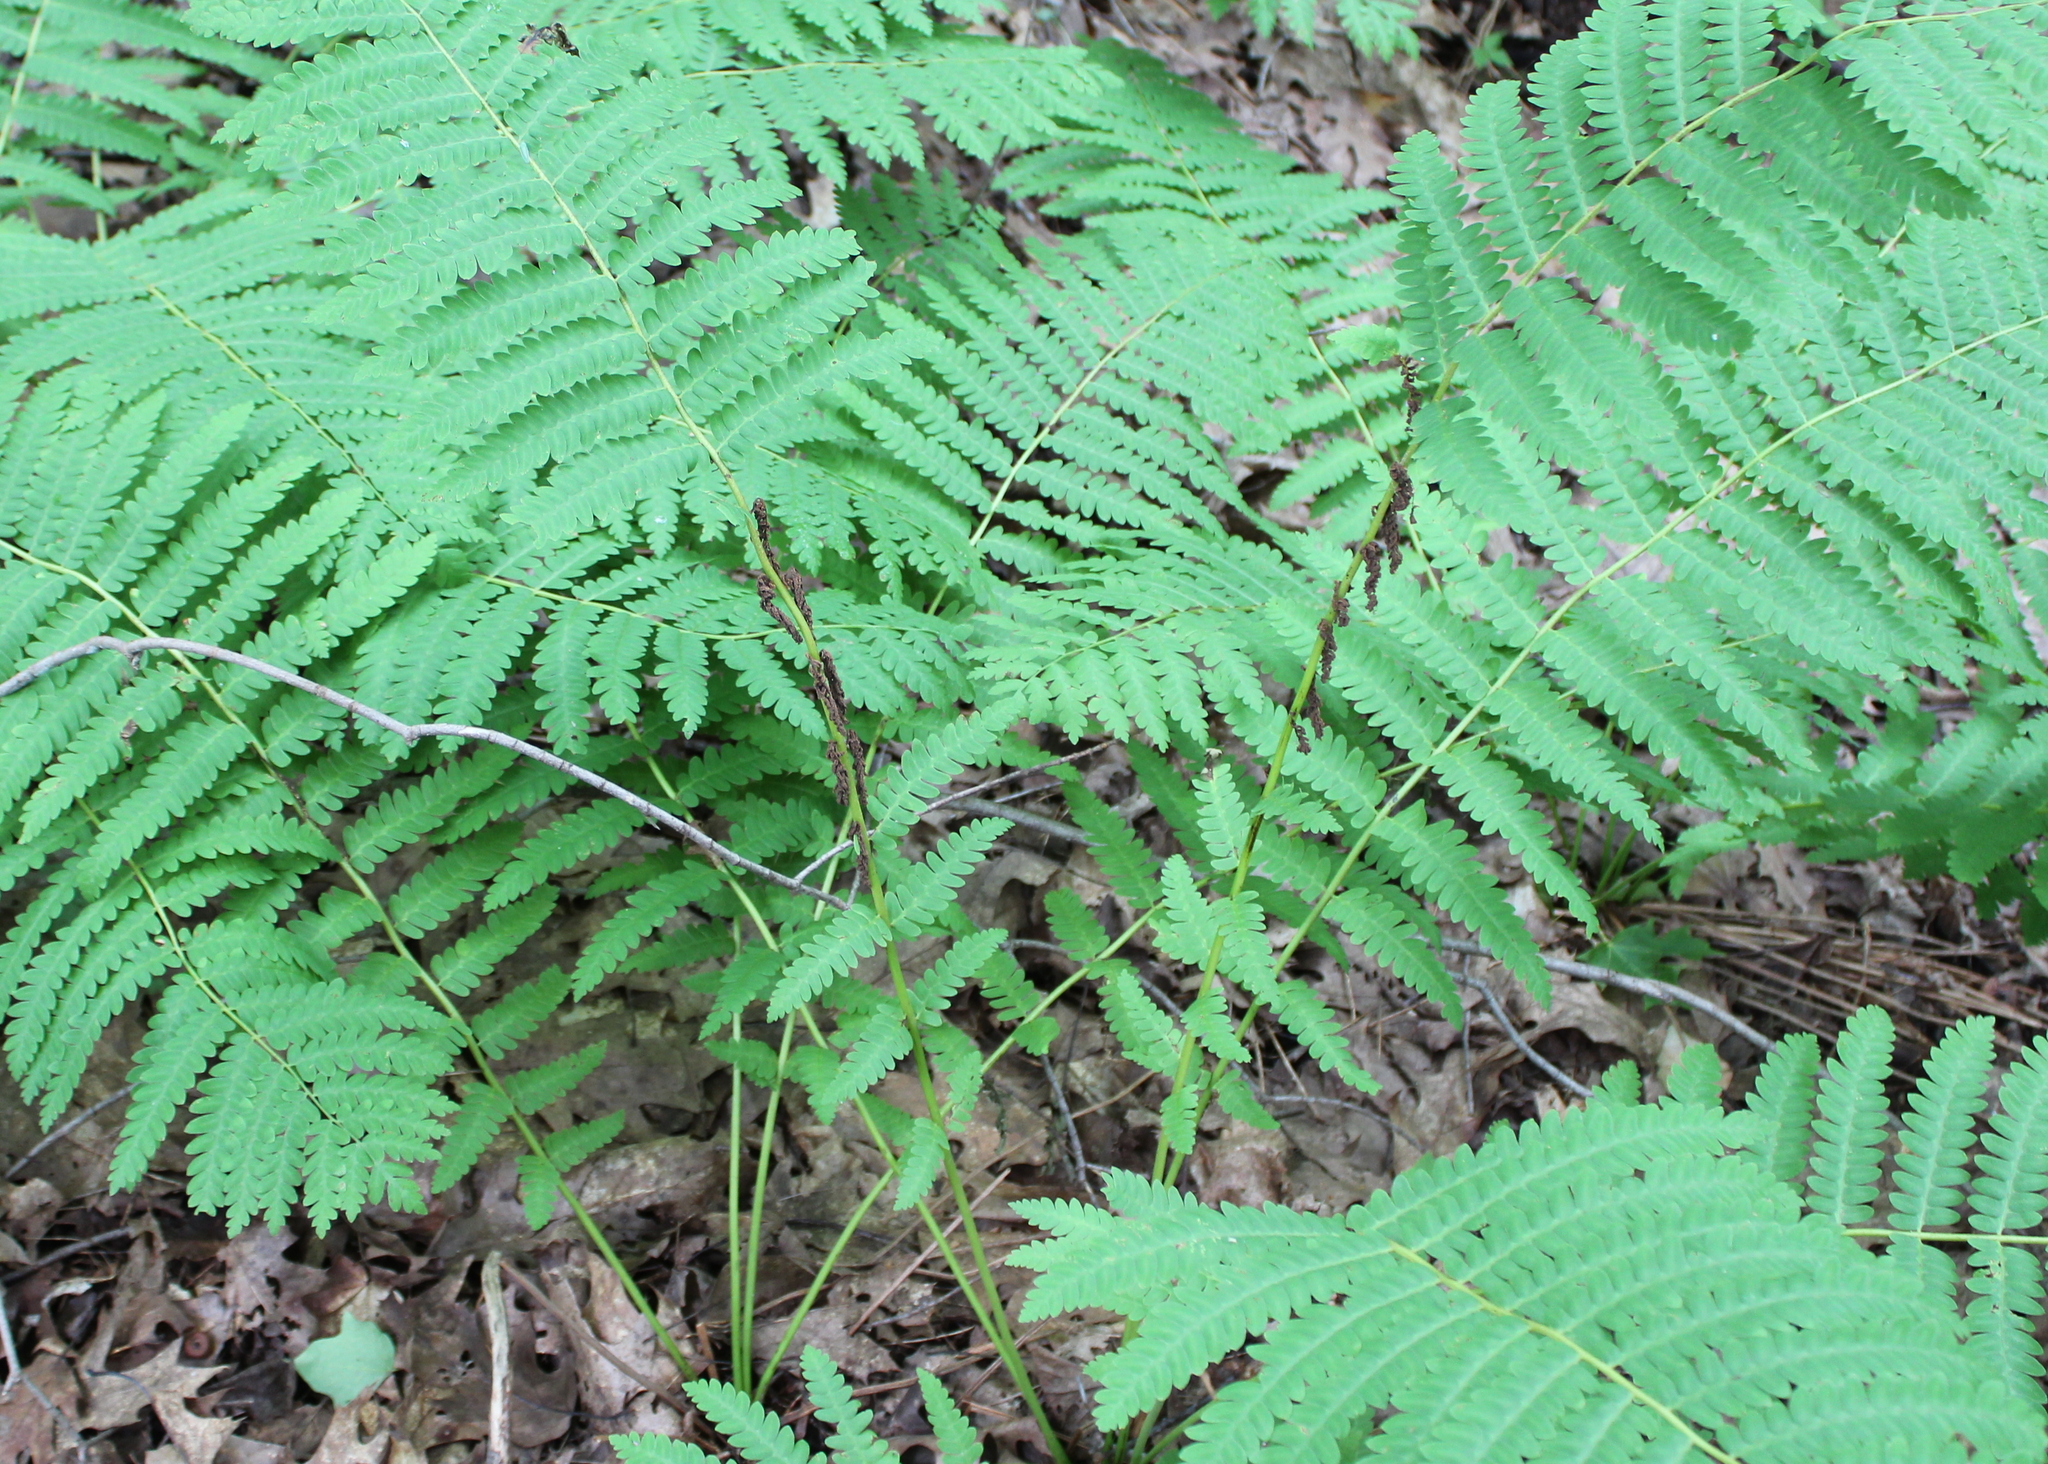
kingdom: Plantae
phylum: Tracheophyta
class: Polypodiopsida
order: Osmundales
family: Osmundaceae
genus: Claytosmunda
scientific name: Claytosmunda claytoniana
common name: Clayton's fern
